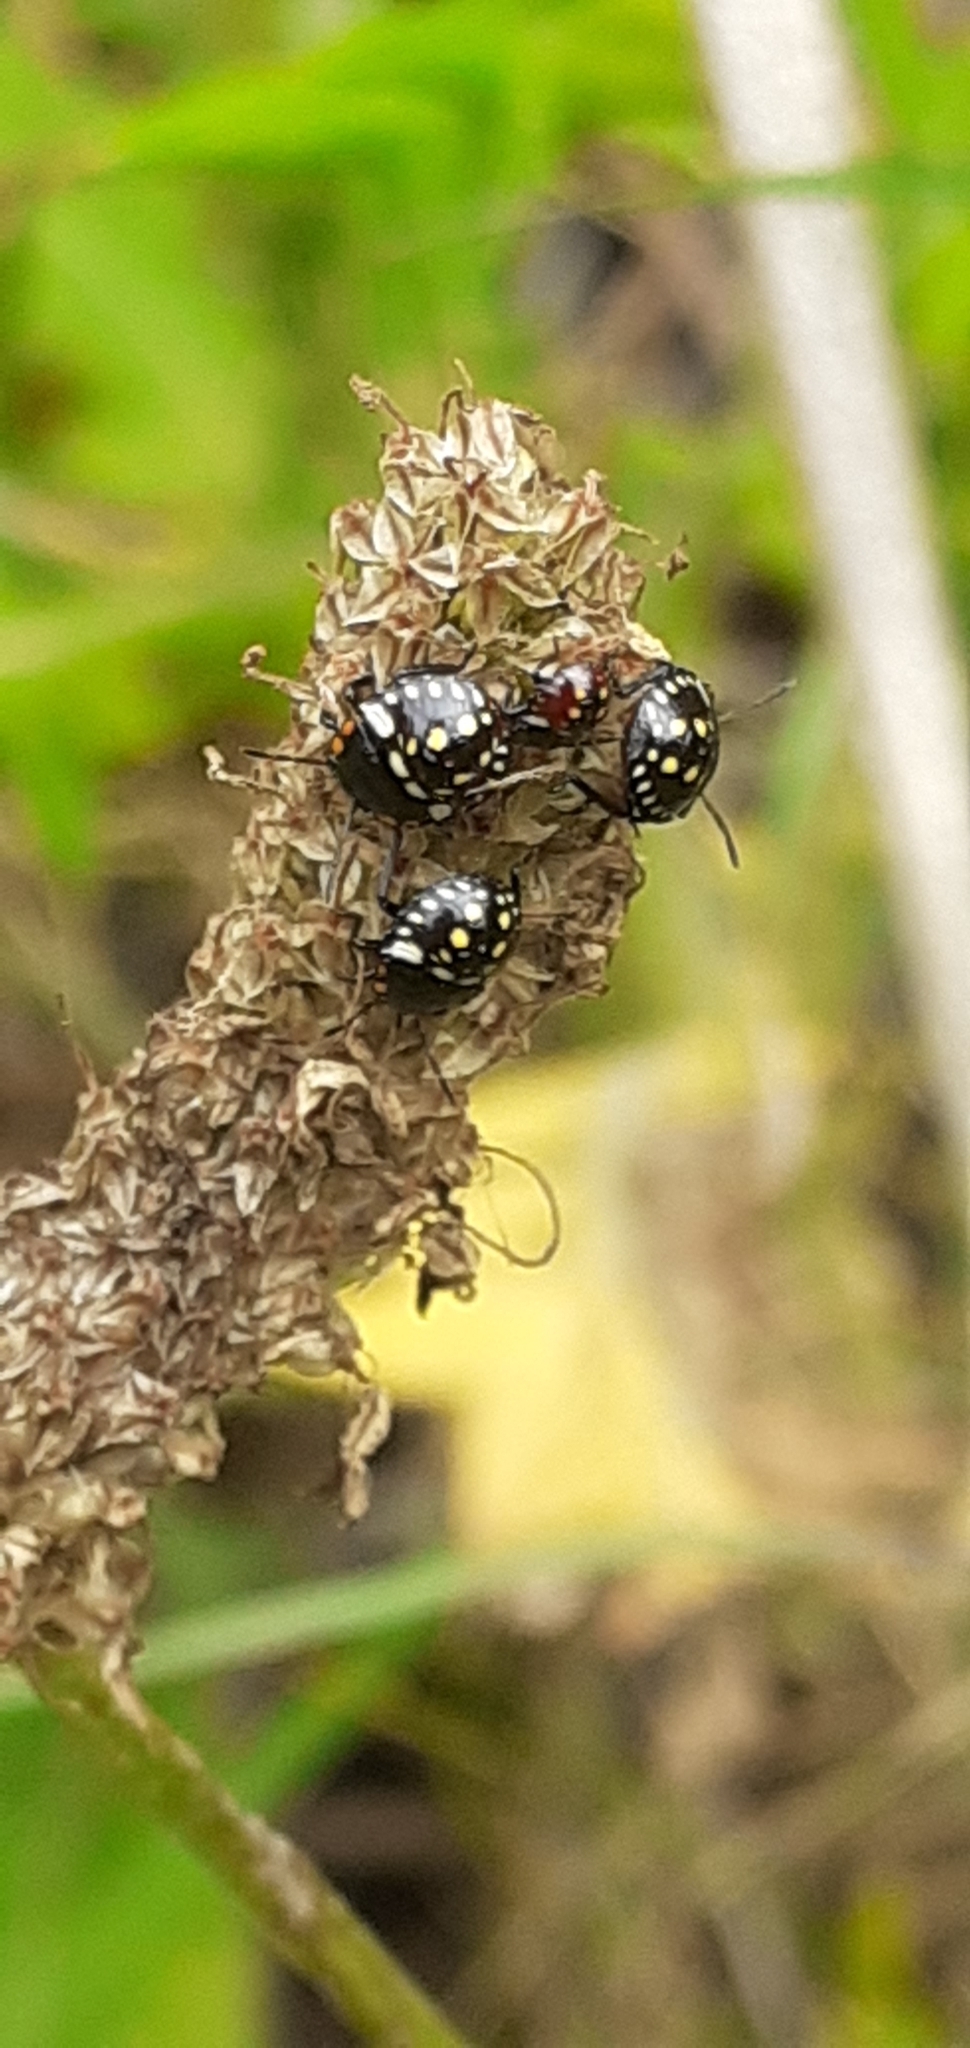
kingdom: Animalia
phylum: Arthropoda
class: Insecta
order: Hemiptera
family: Pentatomidae
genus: Nezara
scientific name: Nezara viridula
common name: Southern green stink bug
